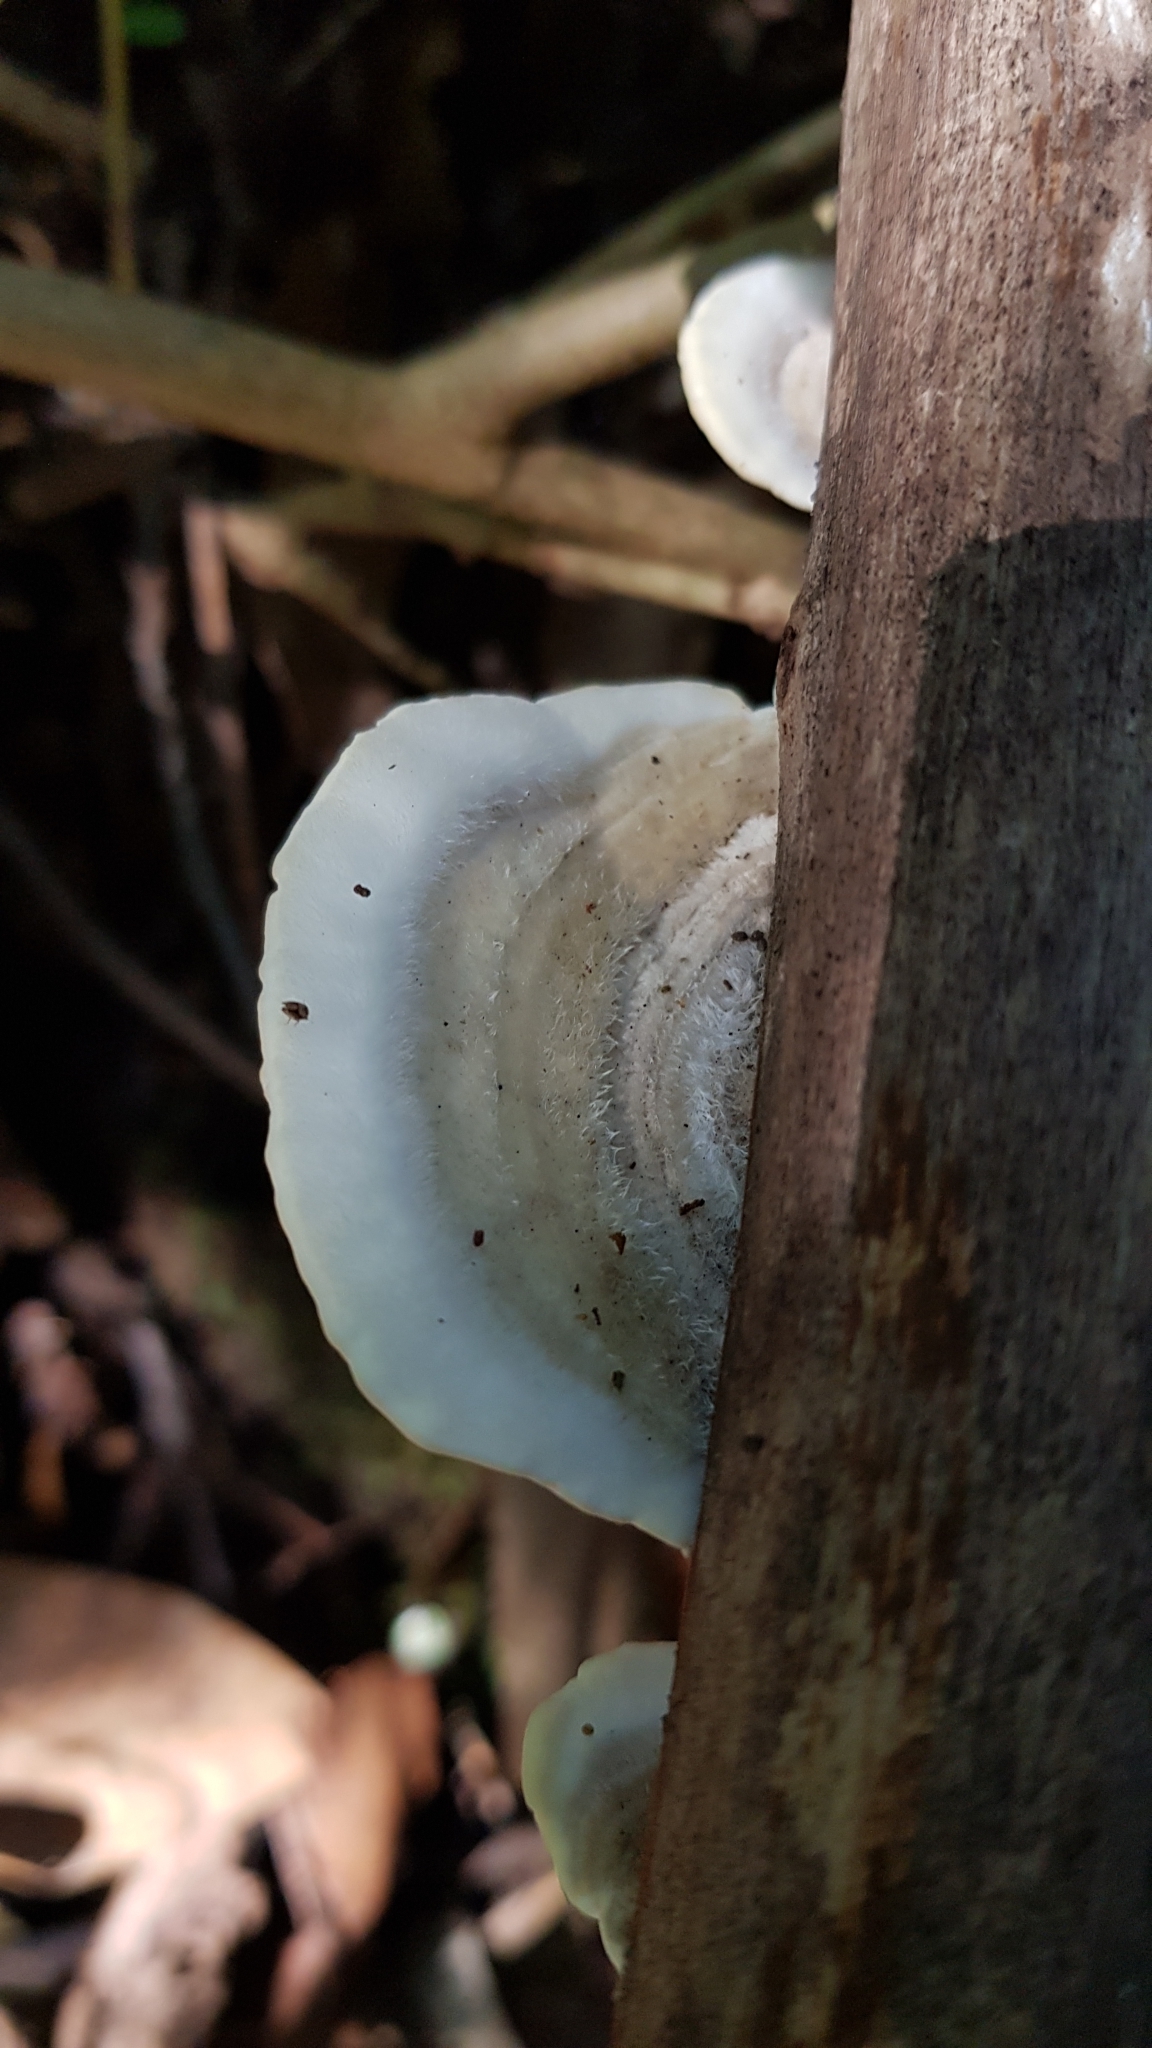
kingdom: Fungi
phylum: Basidiomycota
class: Agaricomycetes
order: Polyporales
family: Polyporaceae
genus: Trametes
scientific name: Trametes hirsuta
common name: Hairy bracket
